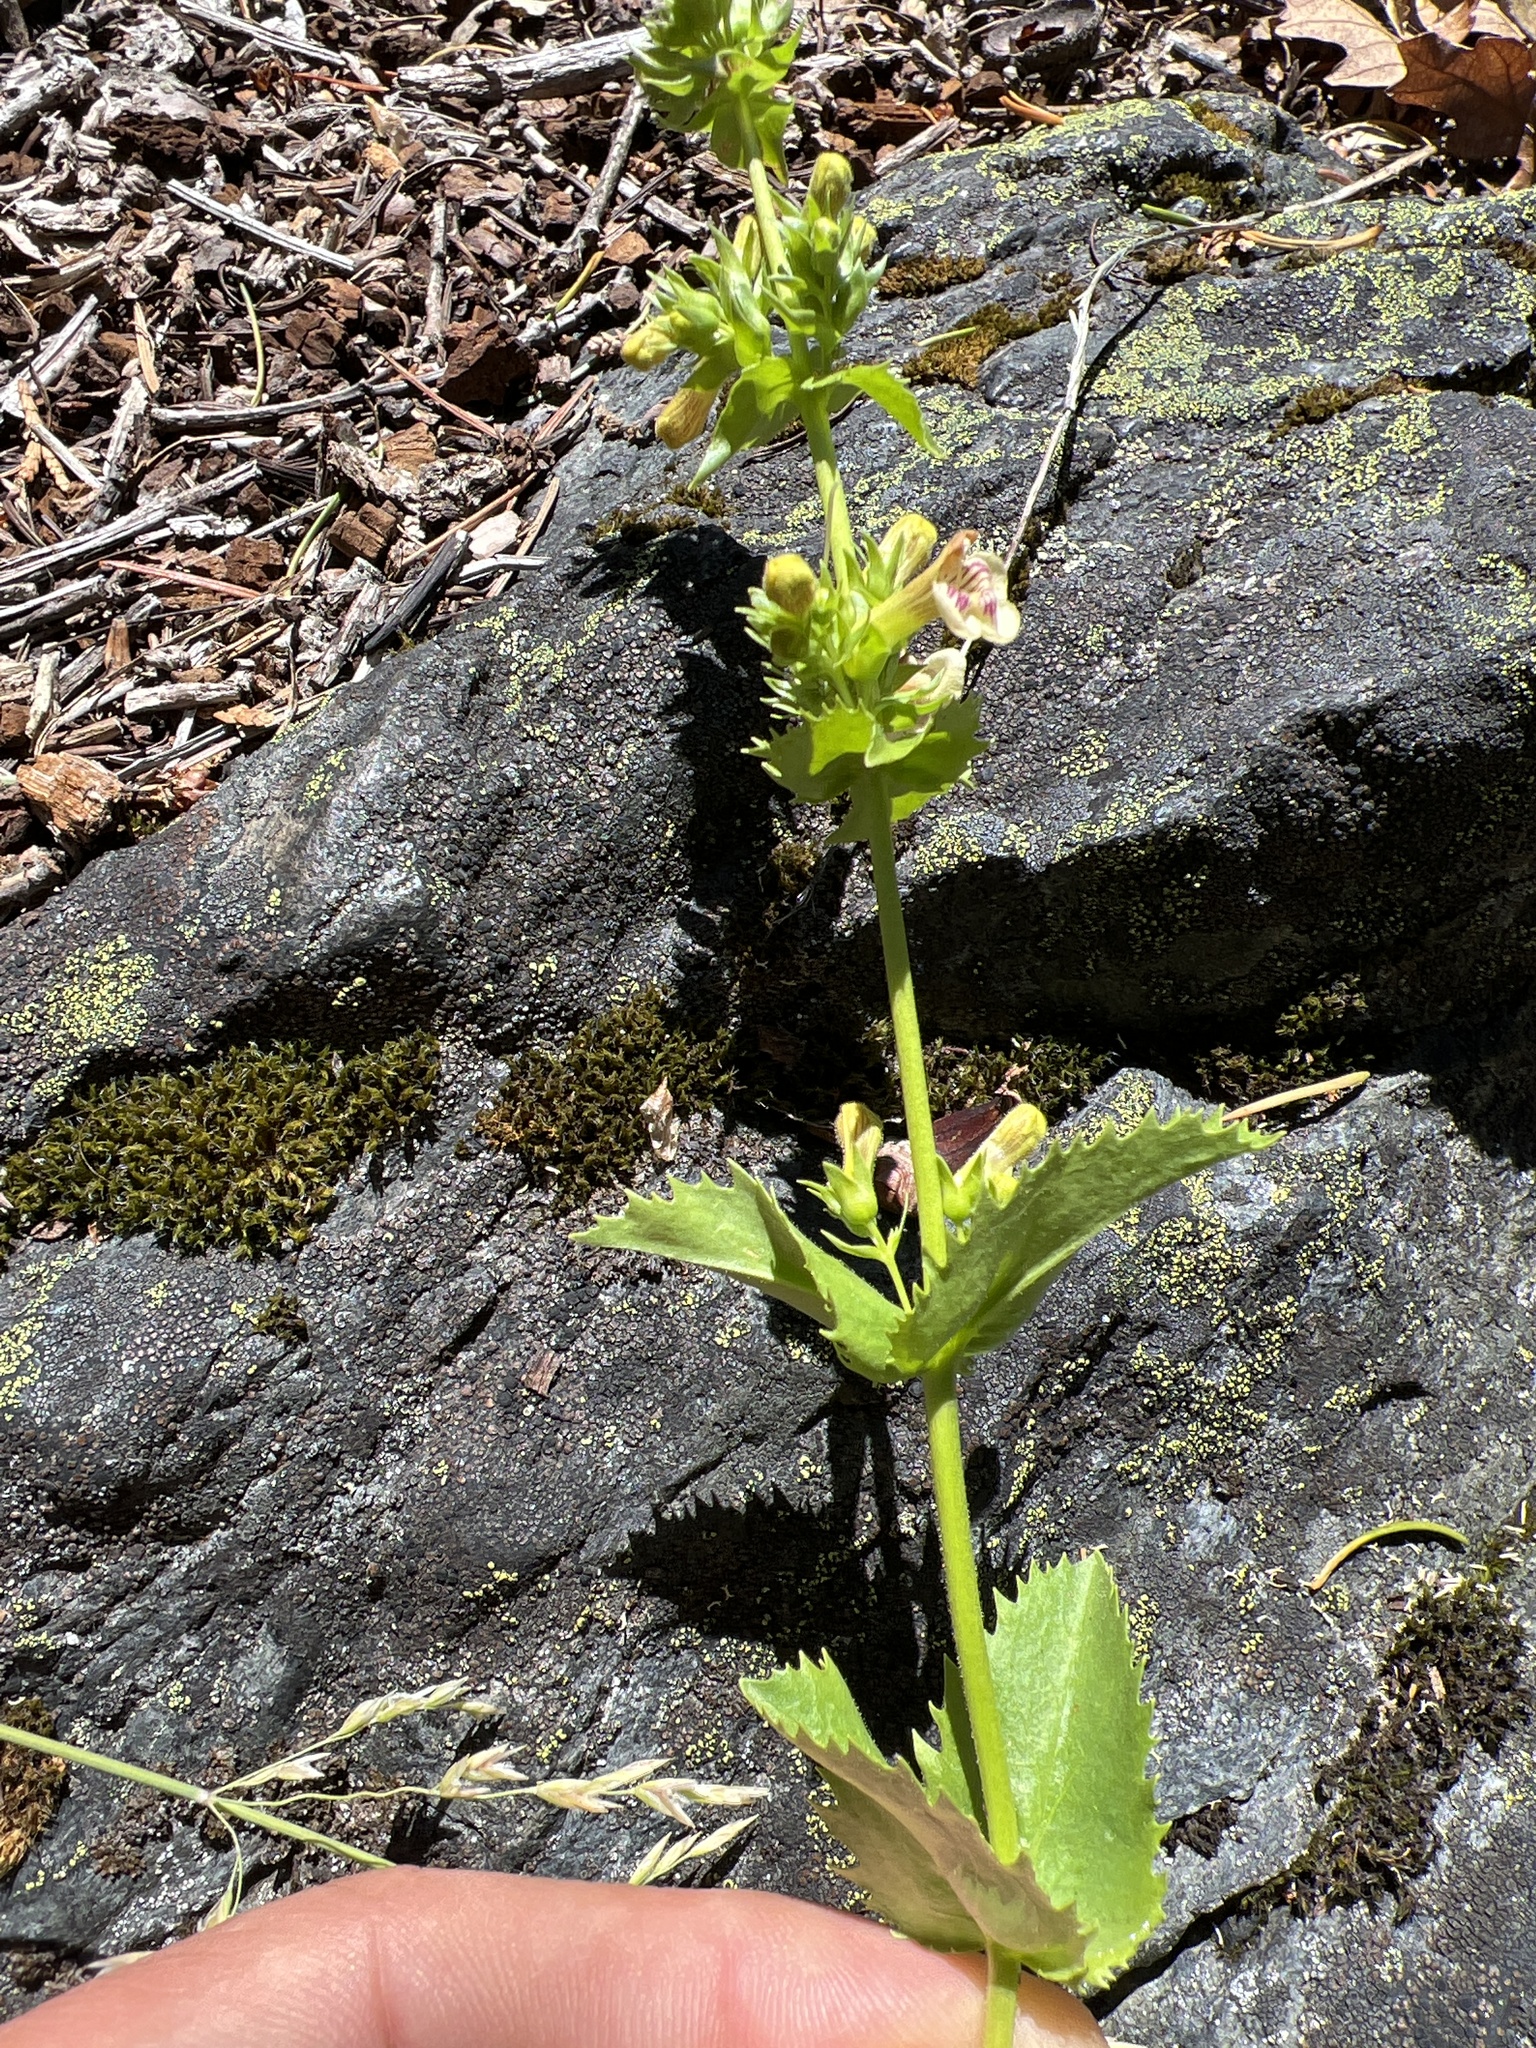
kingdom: Plantae
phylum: Tracheophyta
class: Magnoliopsida
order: Lamiales
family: Plantaginaceae
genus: Penstemon
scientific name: Penstemon deustus
